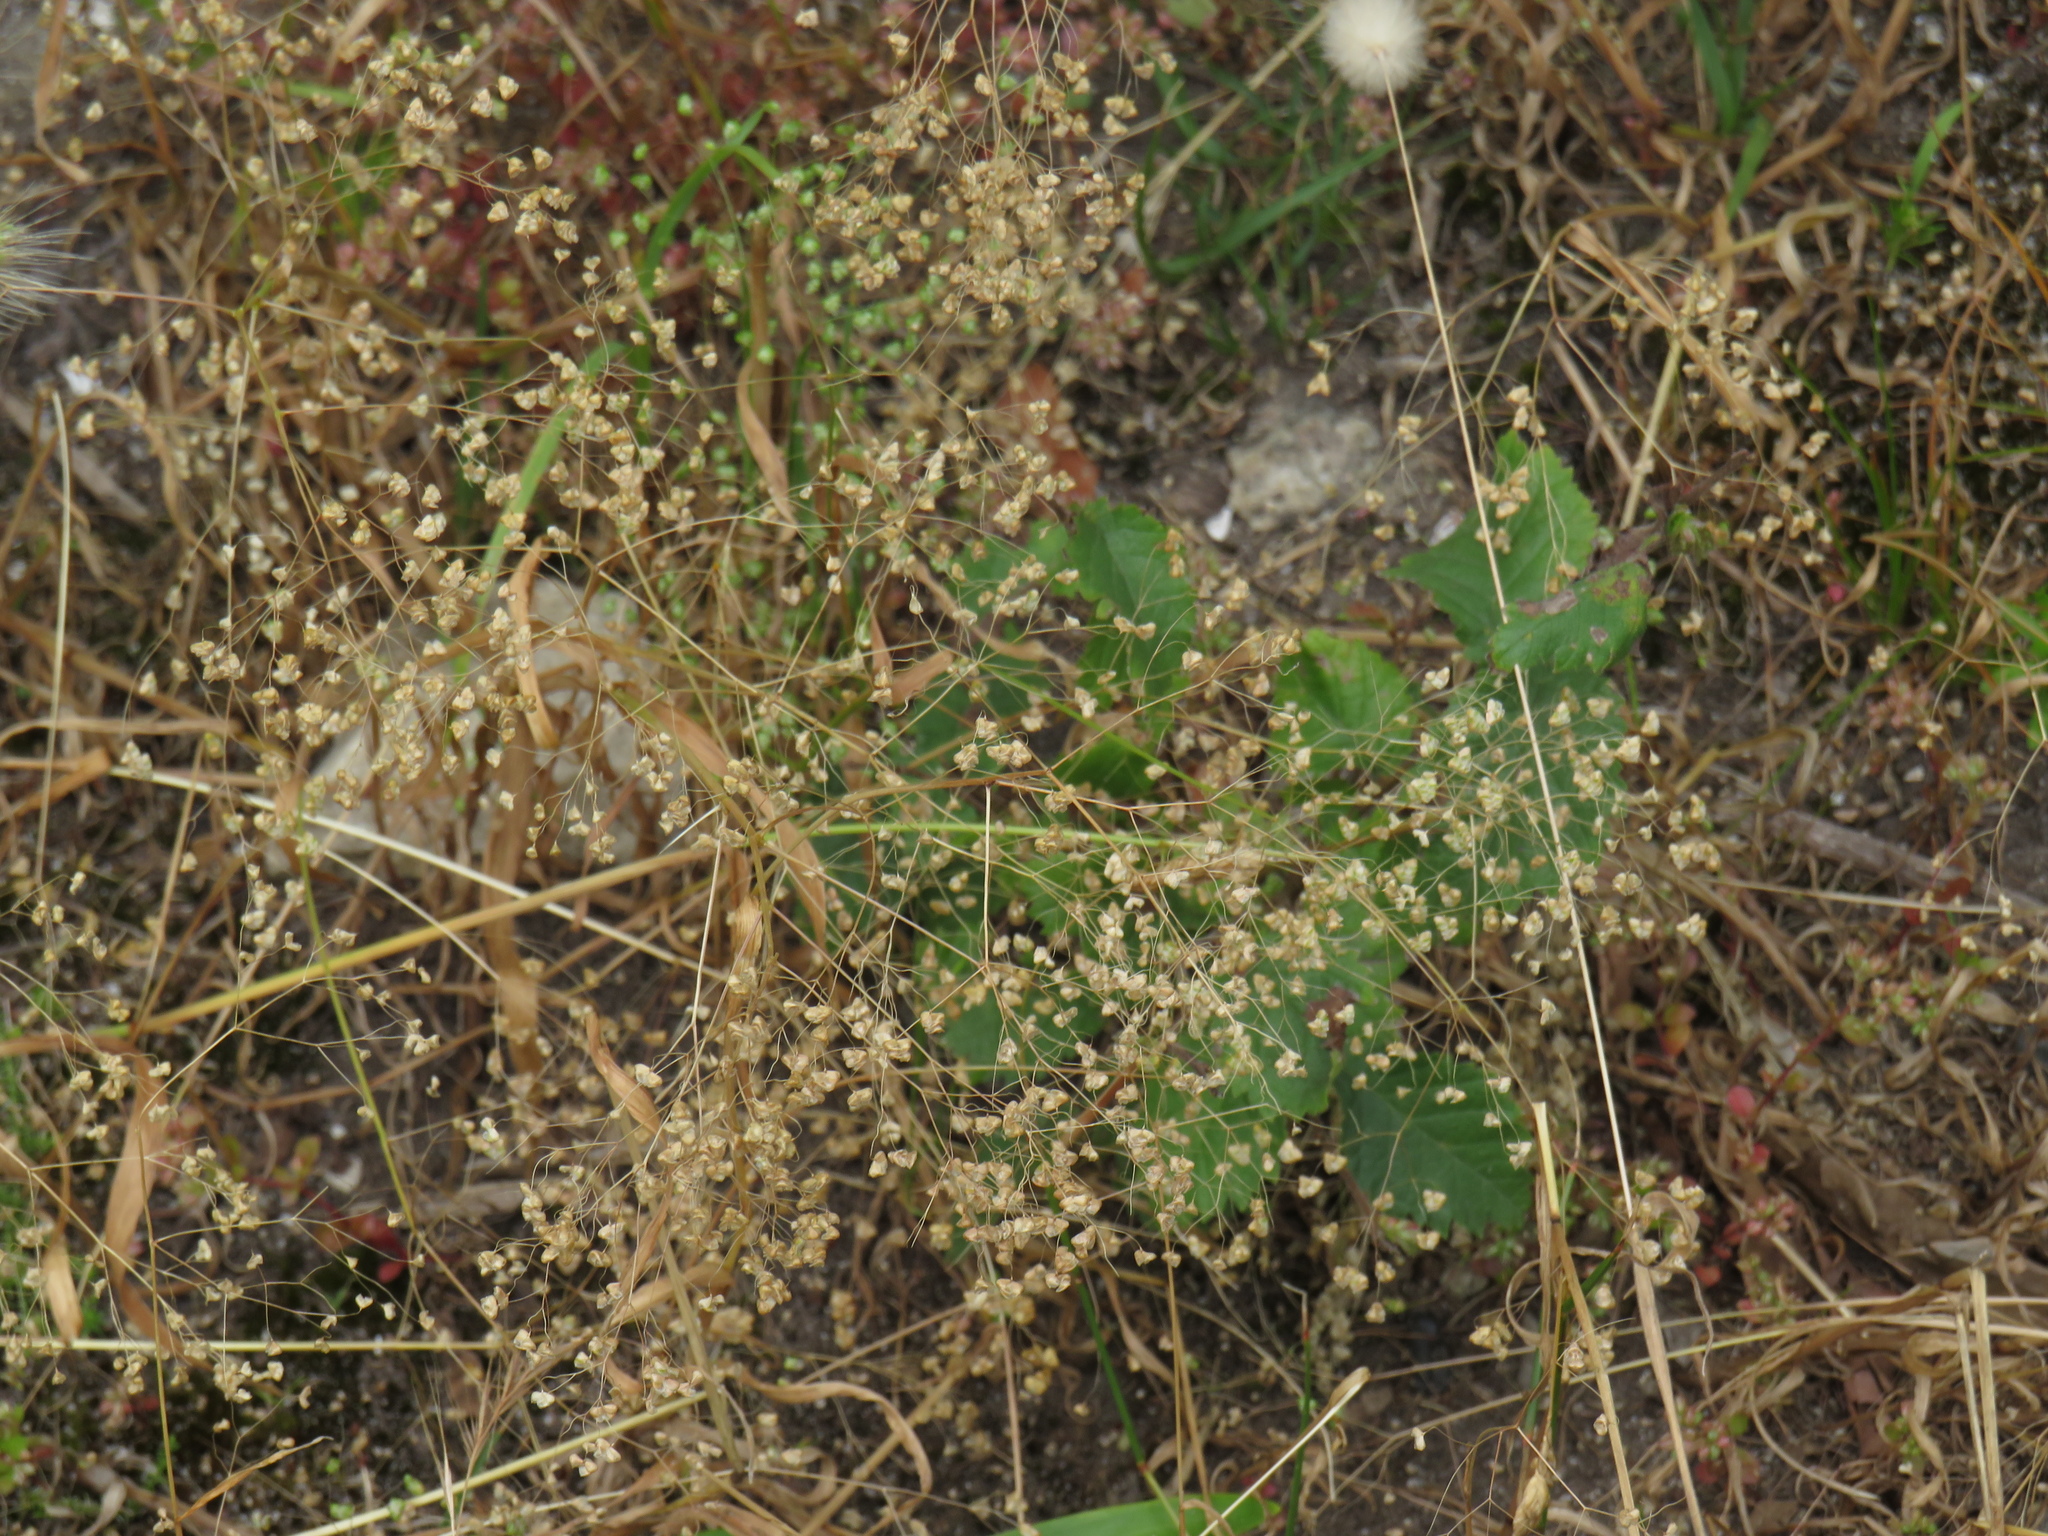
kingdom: Plantae
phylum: Tracheophyta
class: Liliopsida
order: Poales
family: Poaceae
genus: Briza
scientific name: Briza minor
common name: Lesser quaking-grass
